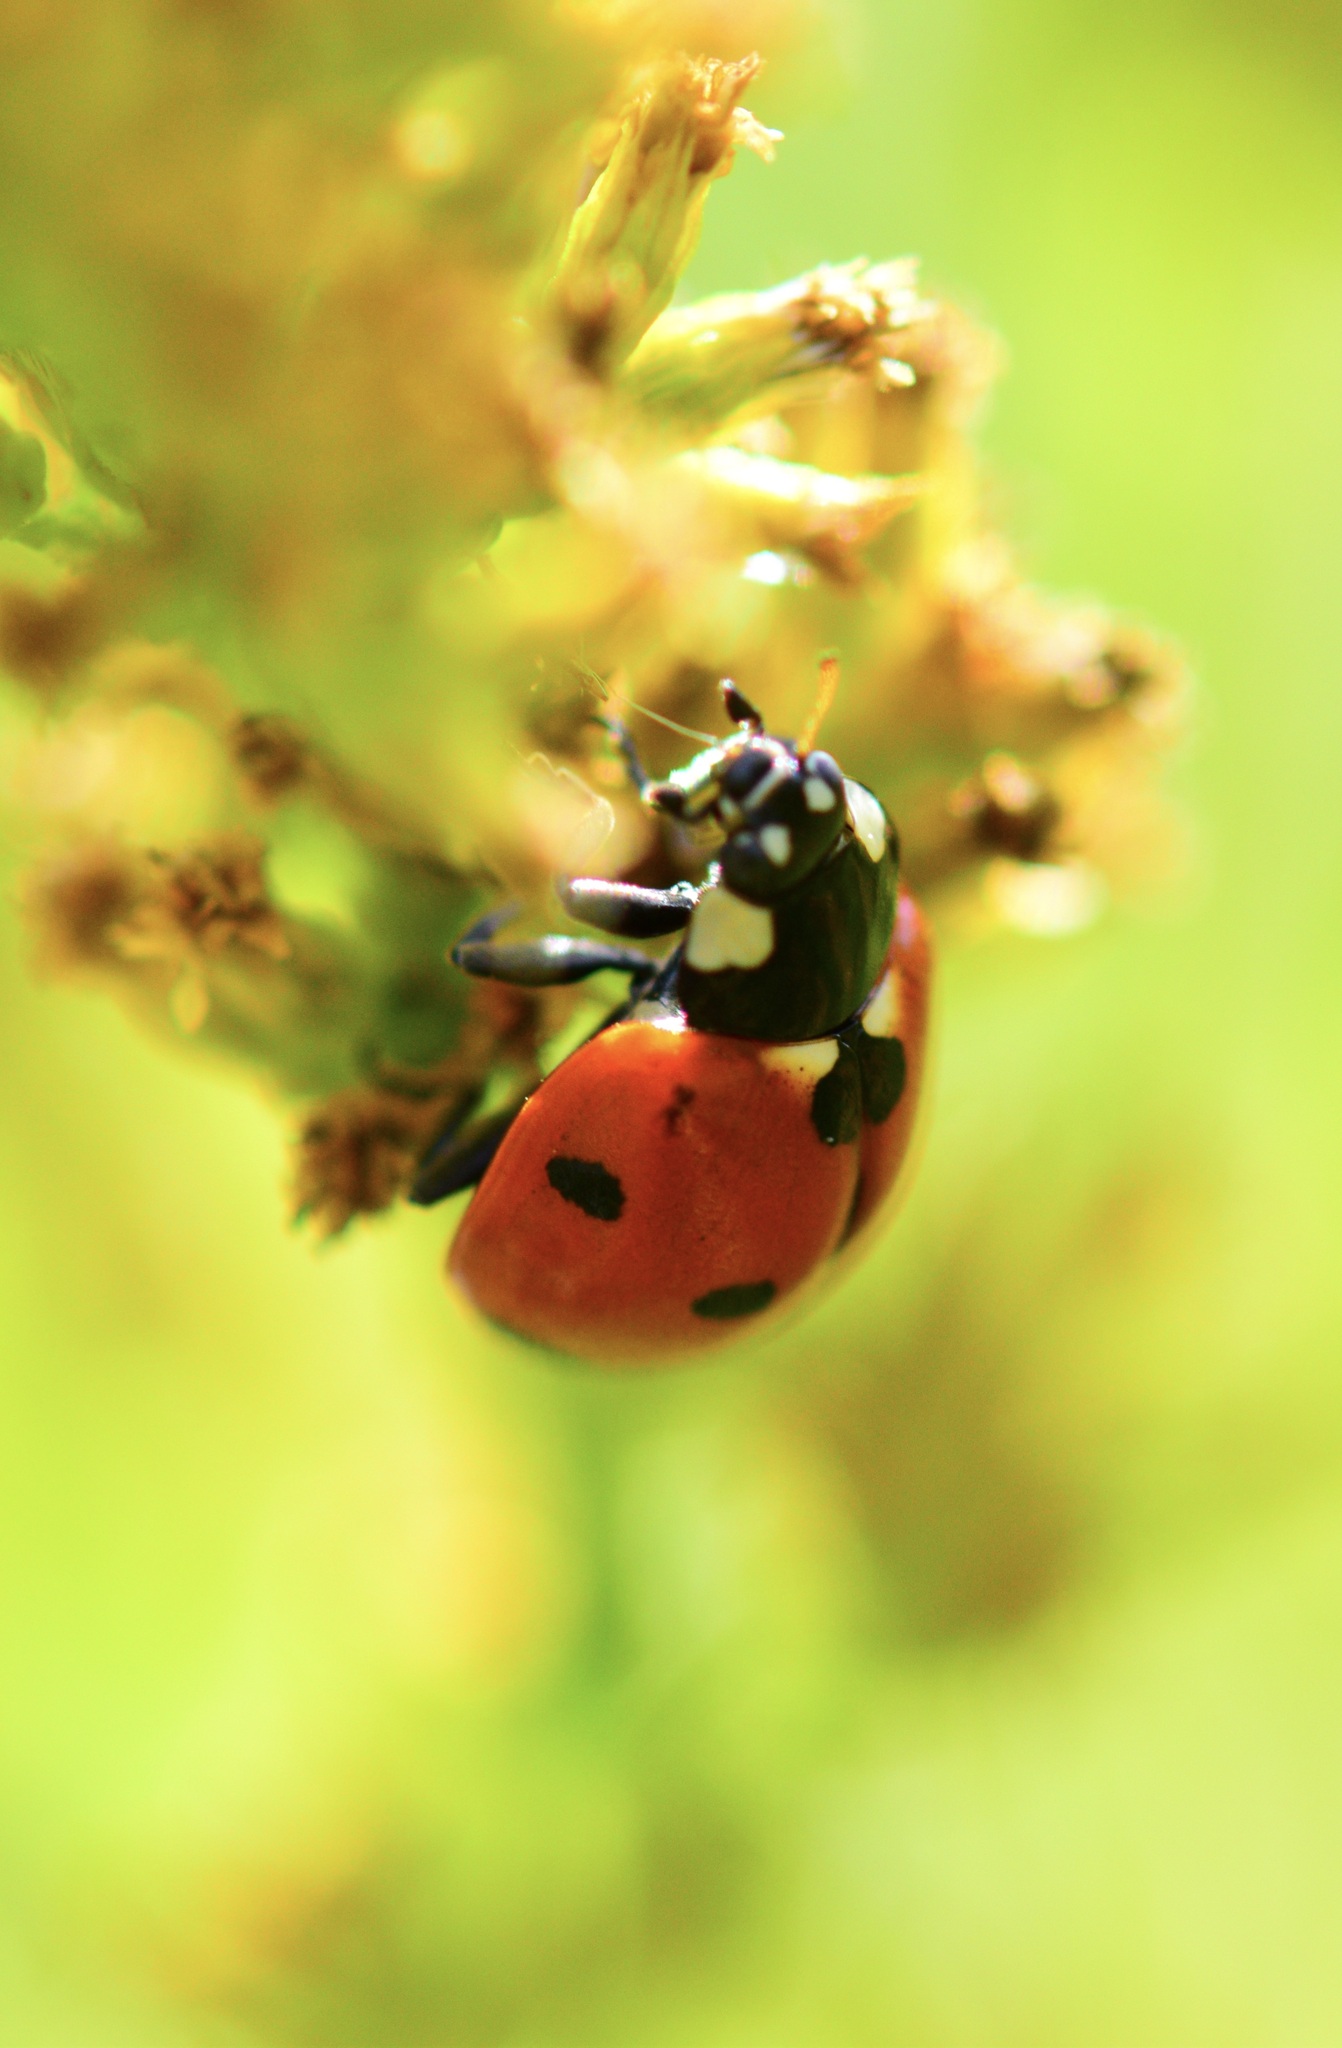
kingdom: Animalia
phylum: Arthropoda
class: Insecta
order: Coleoptera
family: Coccinellidae
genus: Coccinella
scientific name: Coccinella septempunctata
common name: Sevenspotted lady beetle
